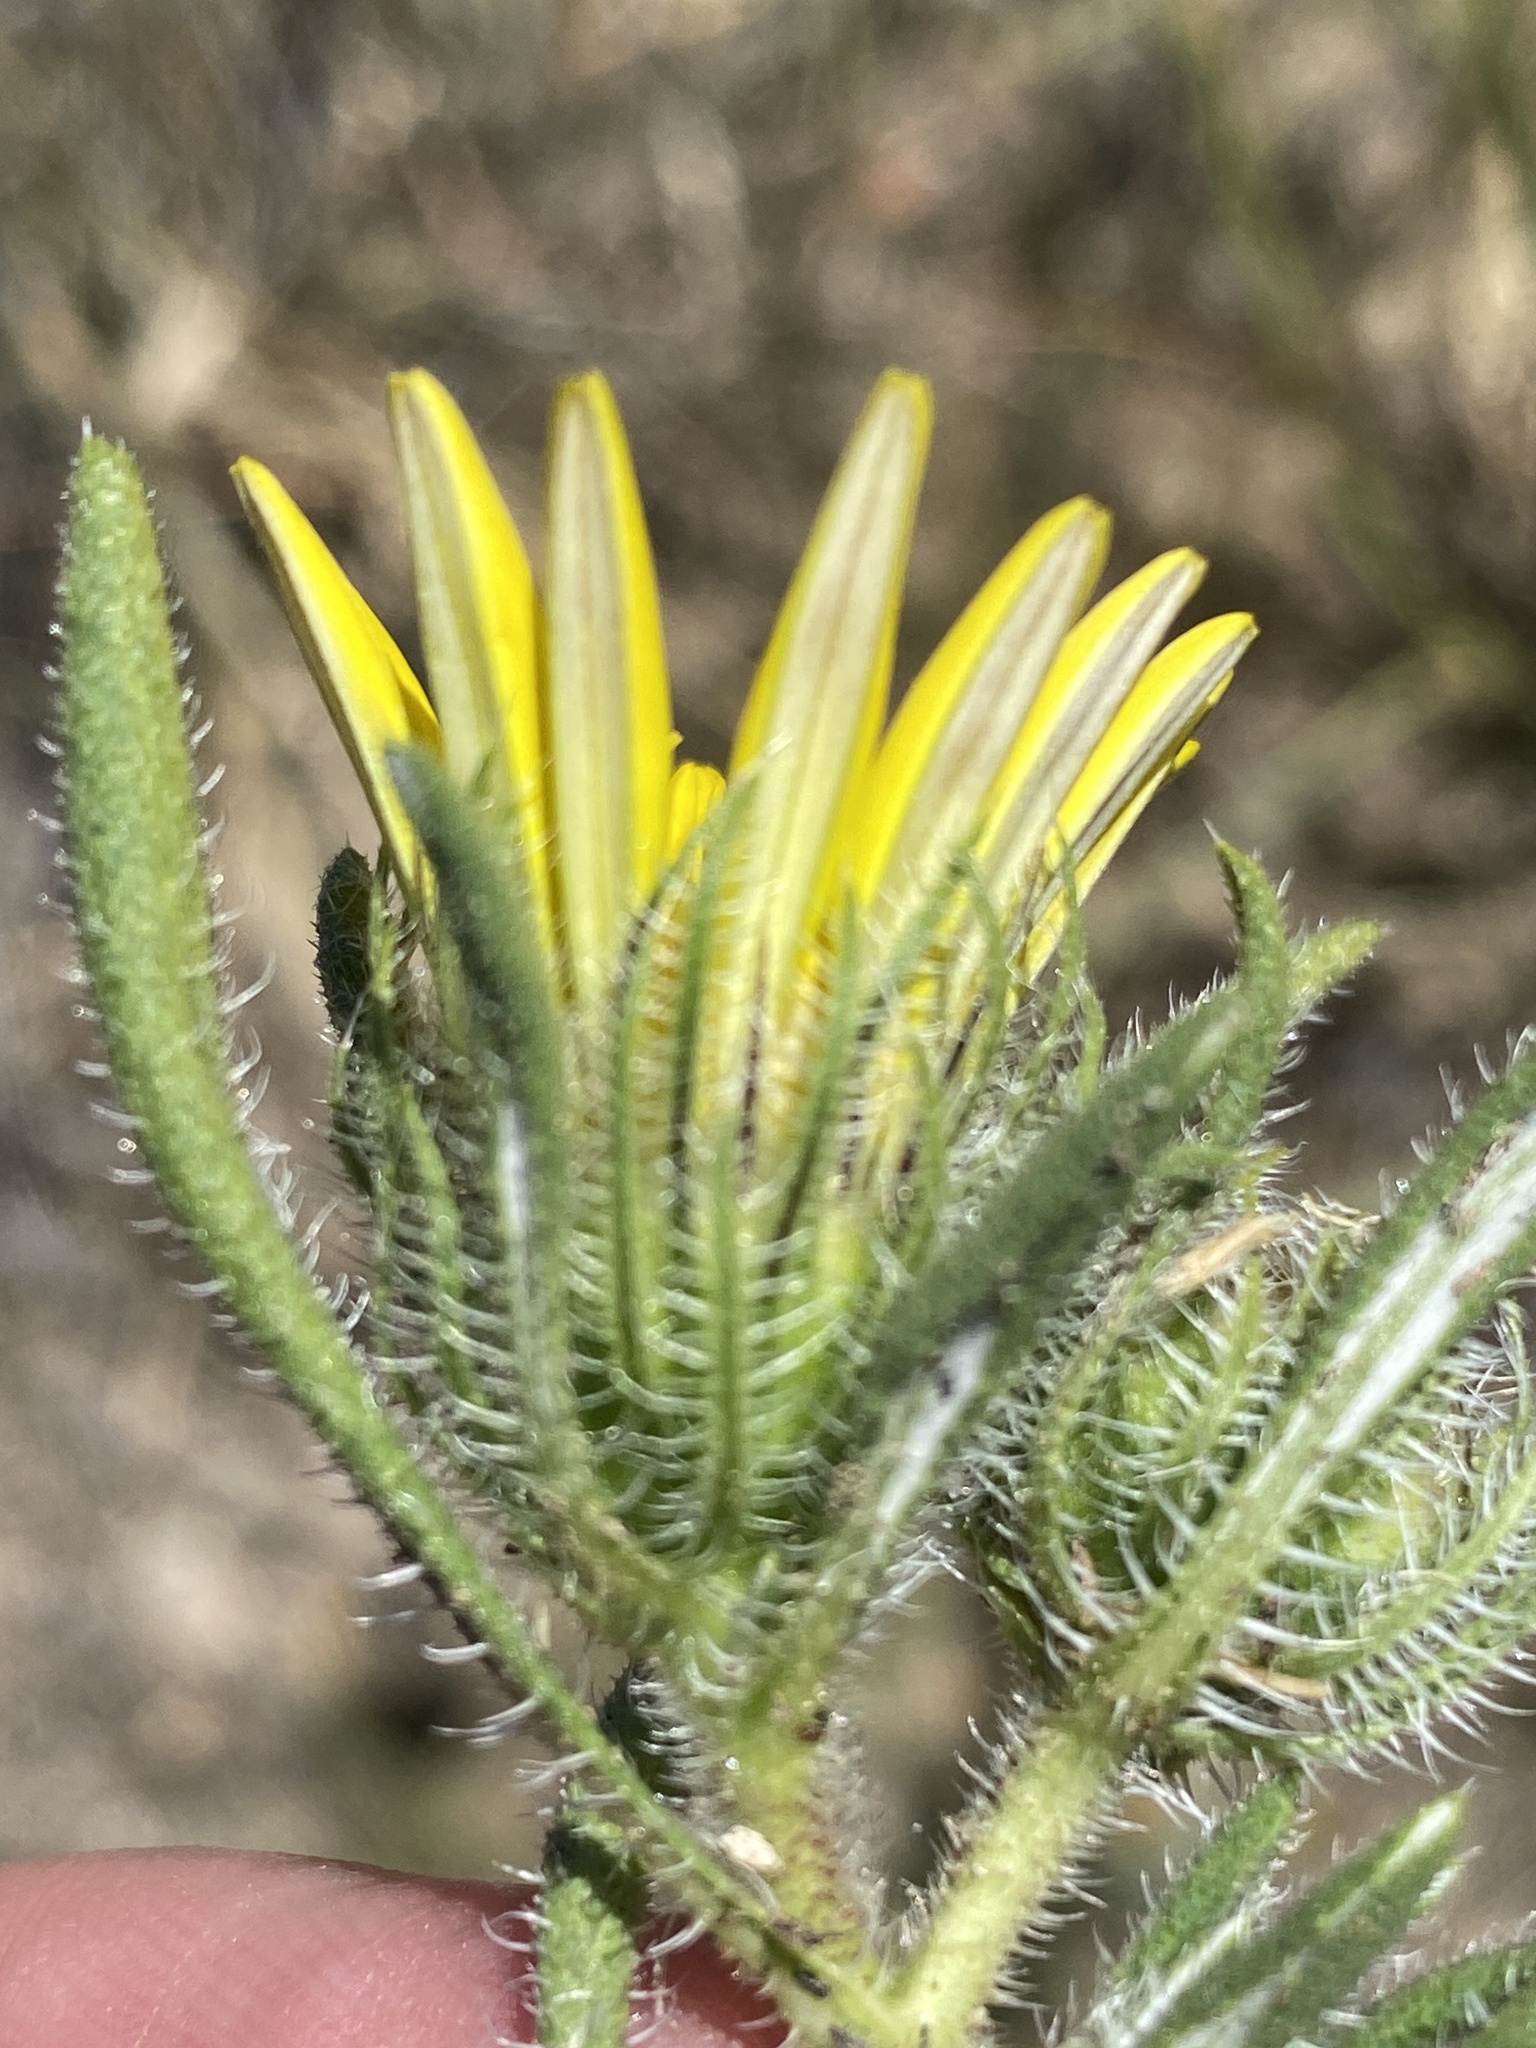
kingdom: Plantae
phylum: Tracheophyta
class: Magnoliopsida
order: Asterales
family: Asteraceae
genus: Roessleria
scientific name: Roessleria gorterioides
